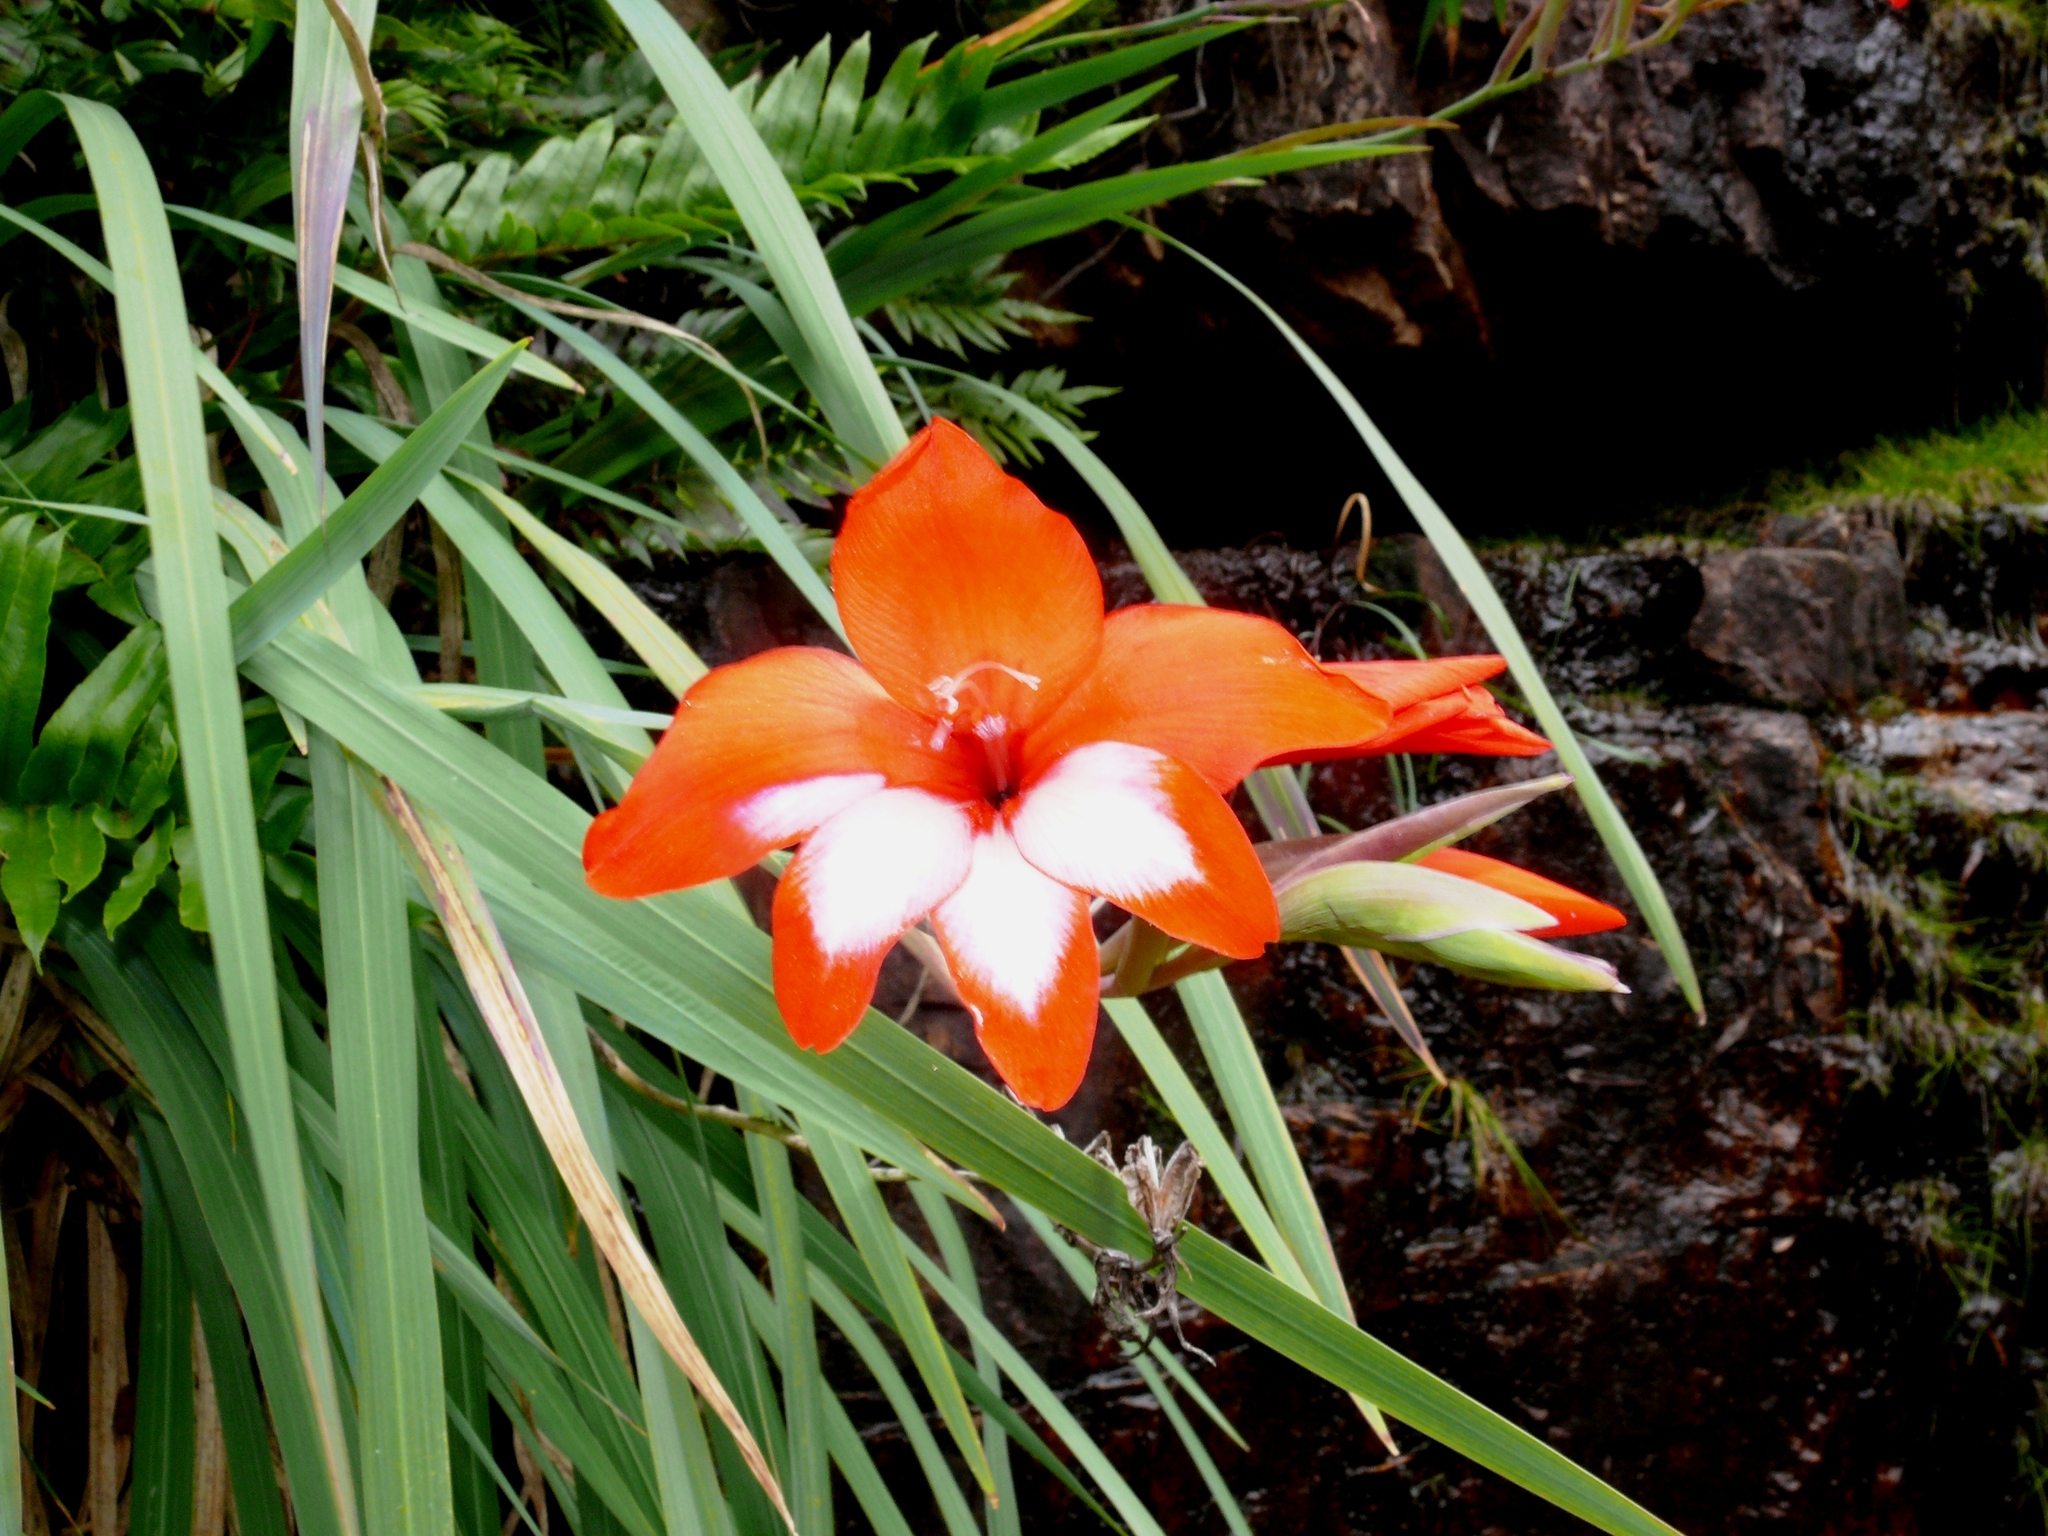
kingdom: Plantae
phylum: Tracheophyta
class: Liliopsida
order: Asparagales
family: Iridaceae
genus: Gladiolus
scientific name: Gladiolus cardinalis
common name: New year-lily
